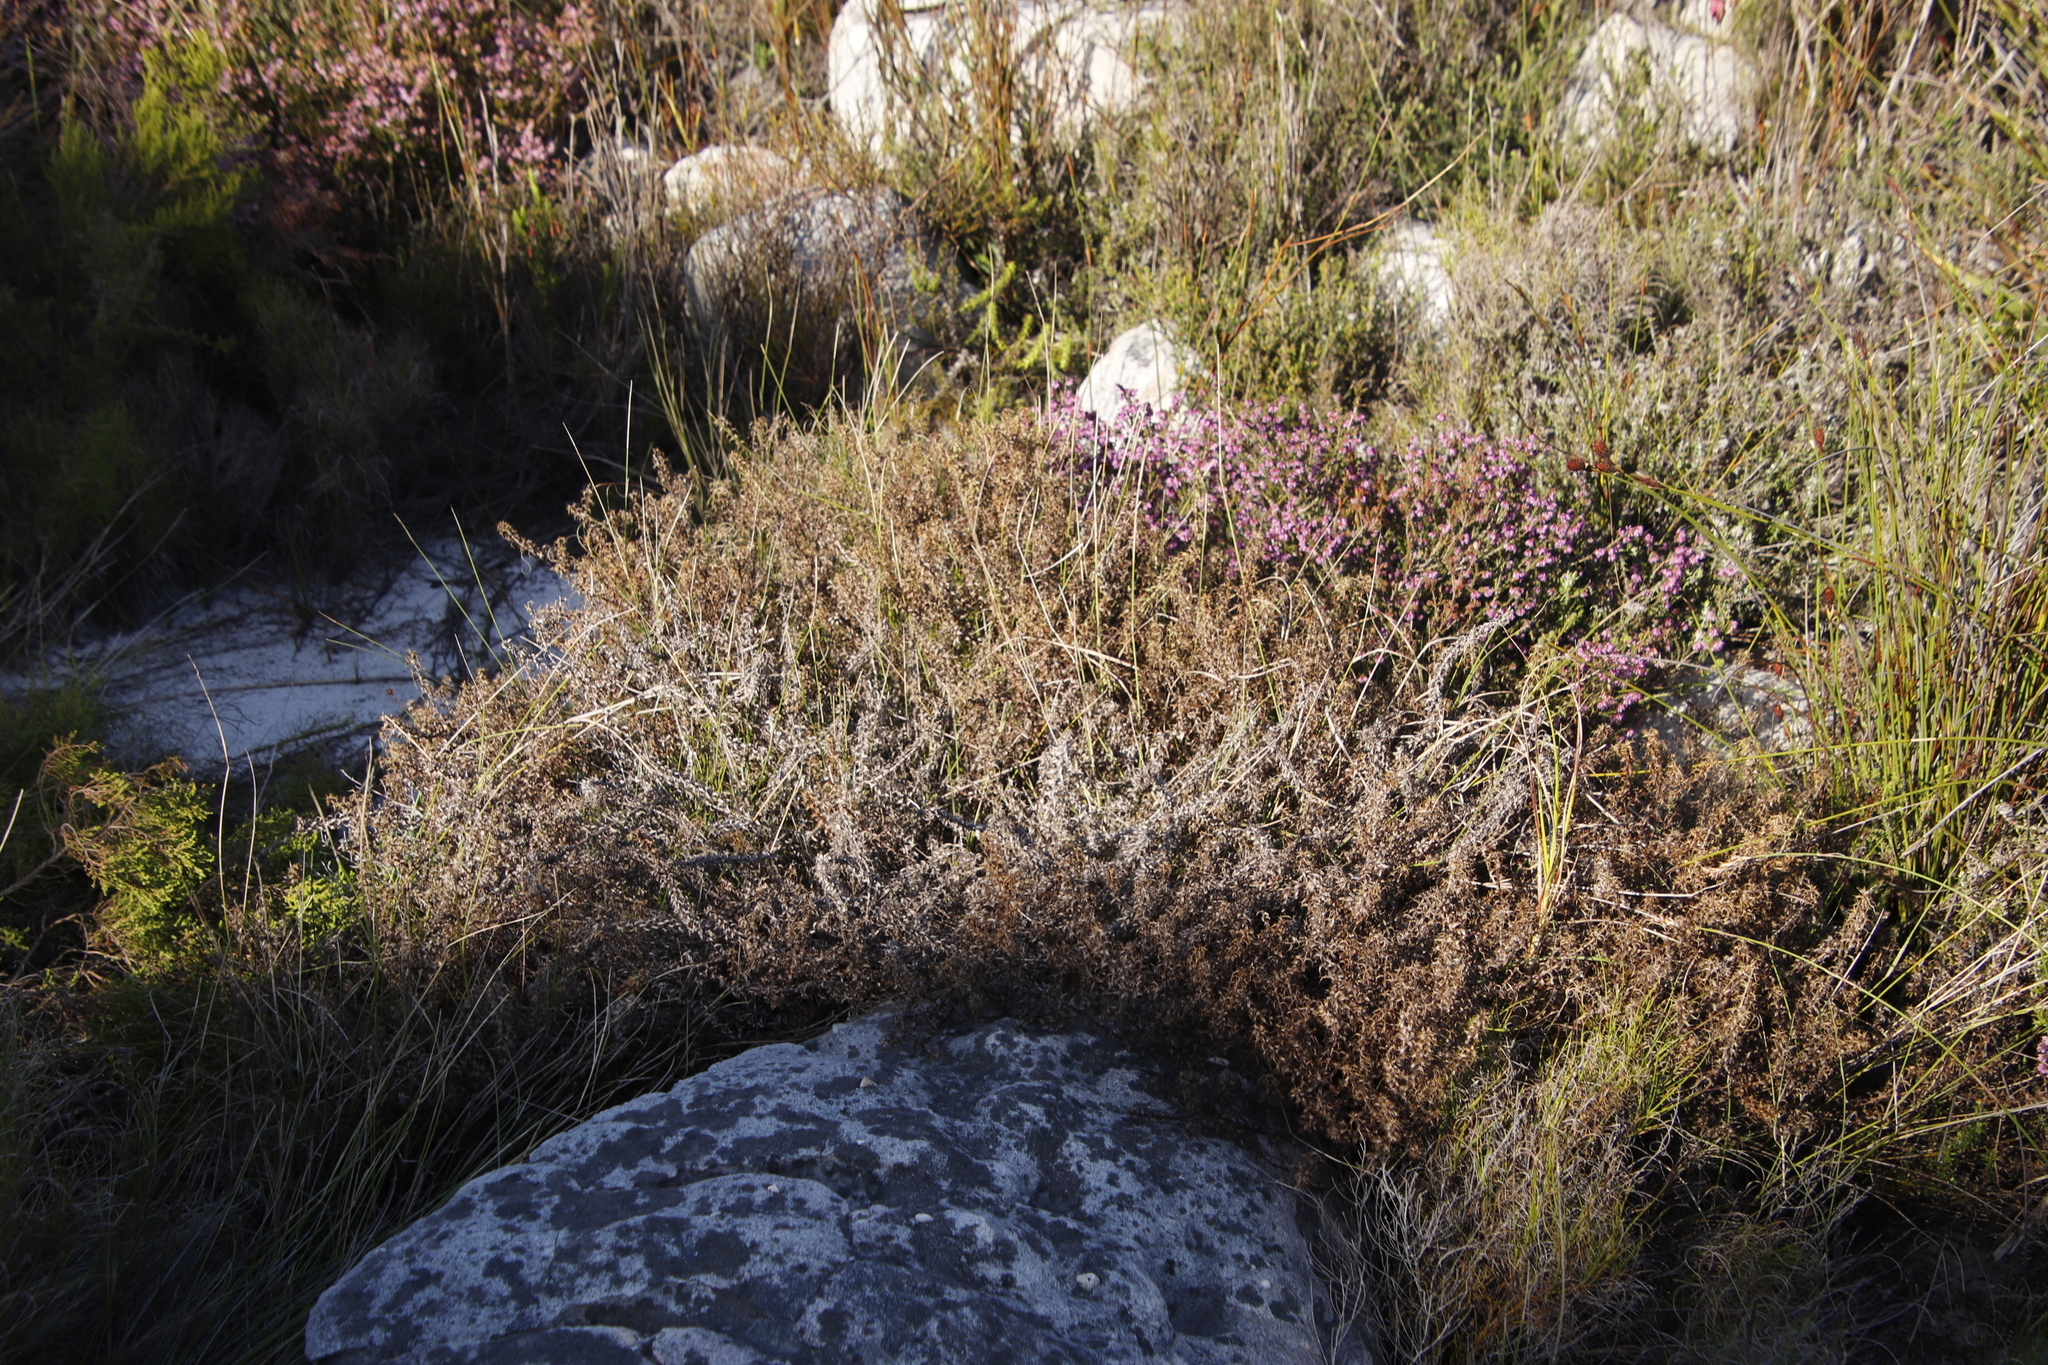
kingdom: Plantae
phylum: Tracheophyta
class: Magnoliopsida
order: Asterales
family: Asteraceae
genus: Myrovernix
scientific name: Myrovernix scaber
